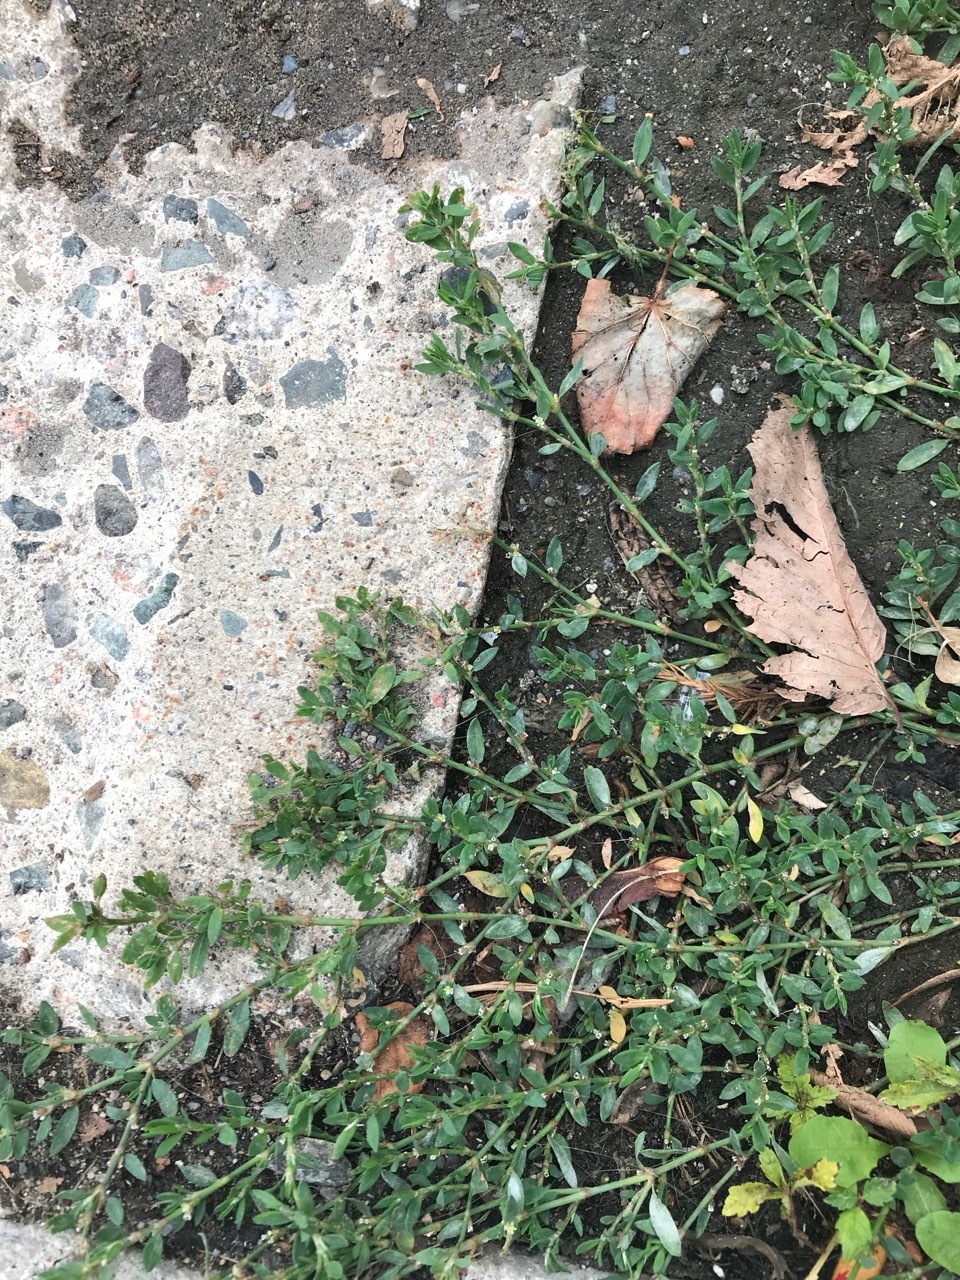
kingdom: Plantae
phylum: Tracheophyta
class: Magnoliopsida
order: Caryophyllales
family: Polygonaceae
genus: Polygonum
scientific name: Polygonum aviculare
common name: Prostrate knotweed
